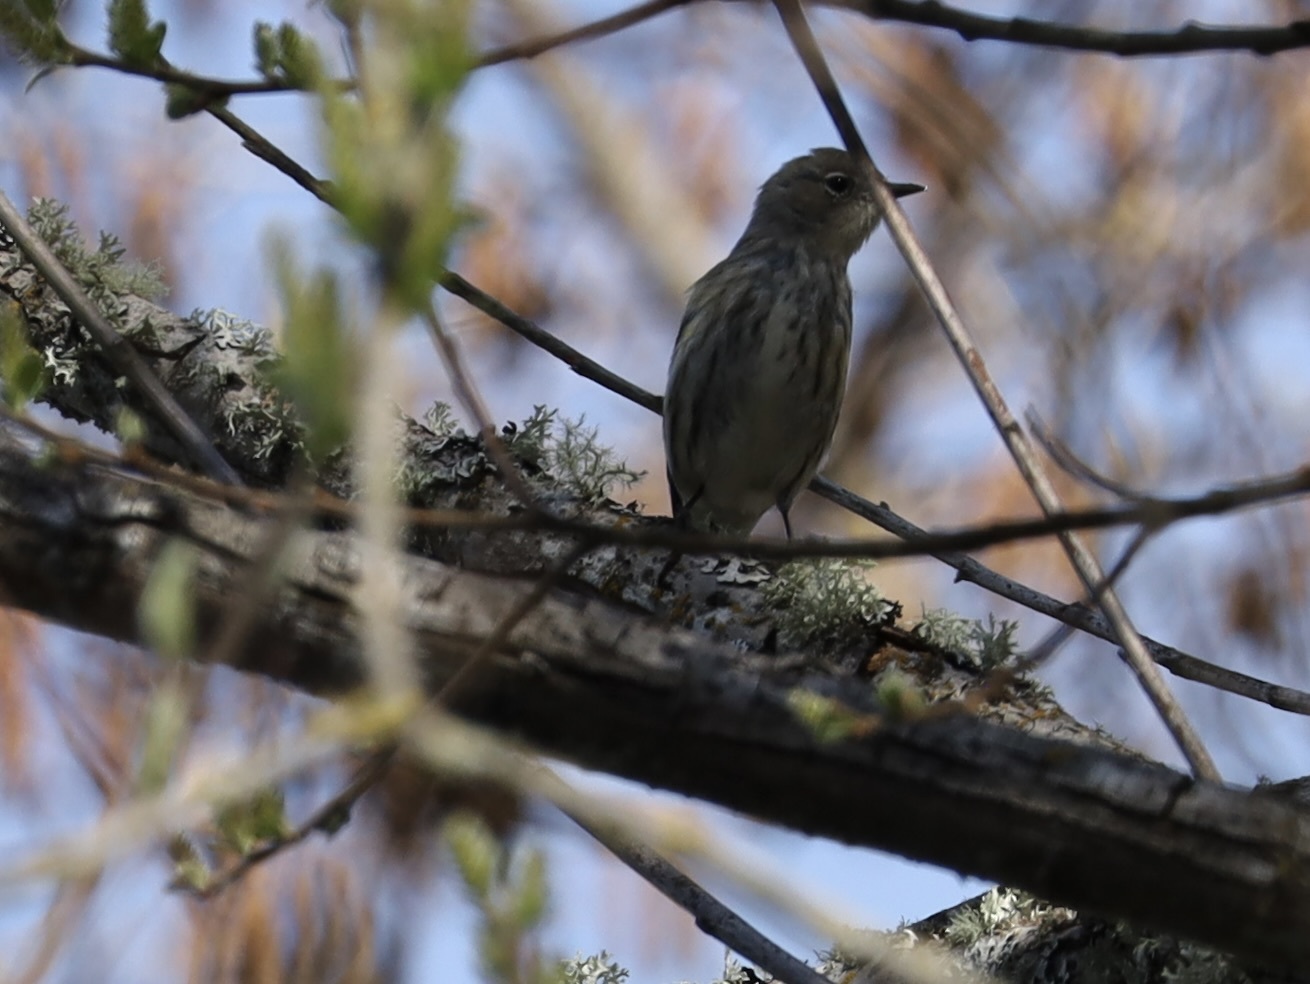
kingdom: Animalia
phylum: Chordata
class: Aves
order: Passeriformes
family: Parulidae
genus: Setophaga
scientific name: Setophaga coronata
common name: Myrtle warbler
